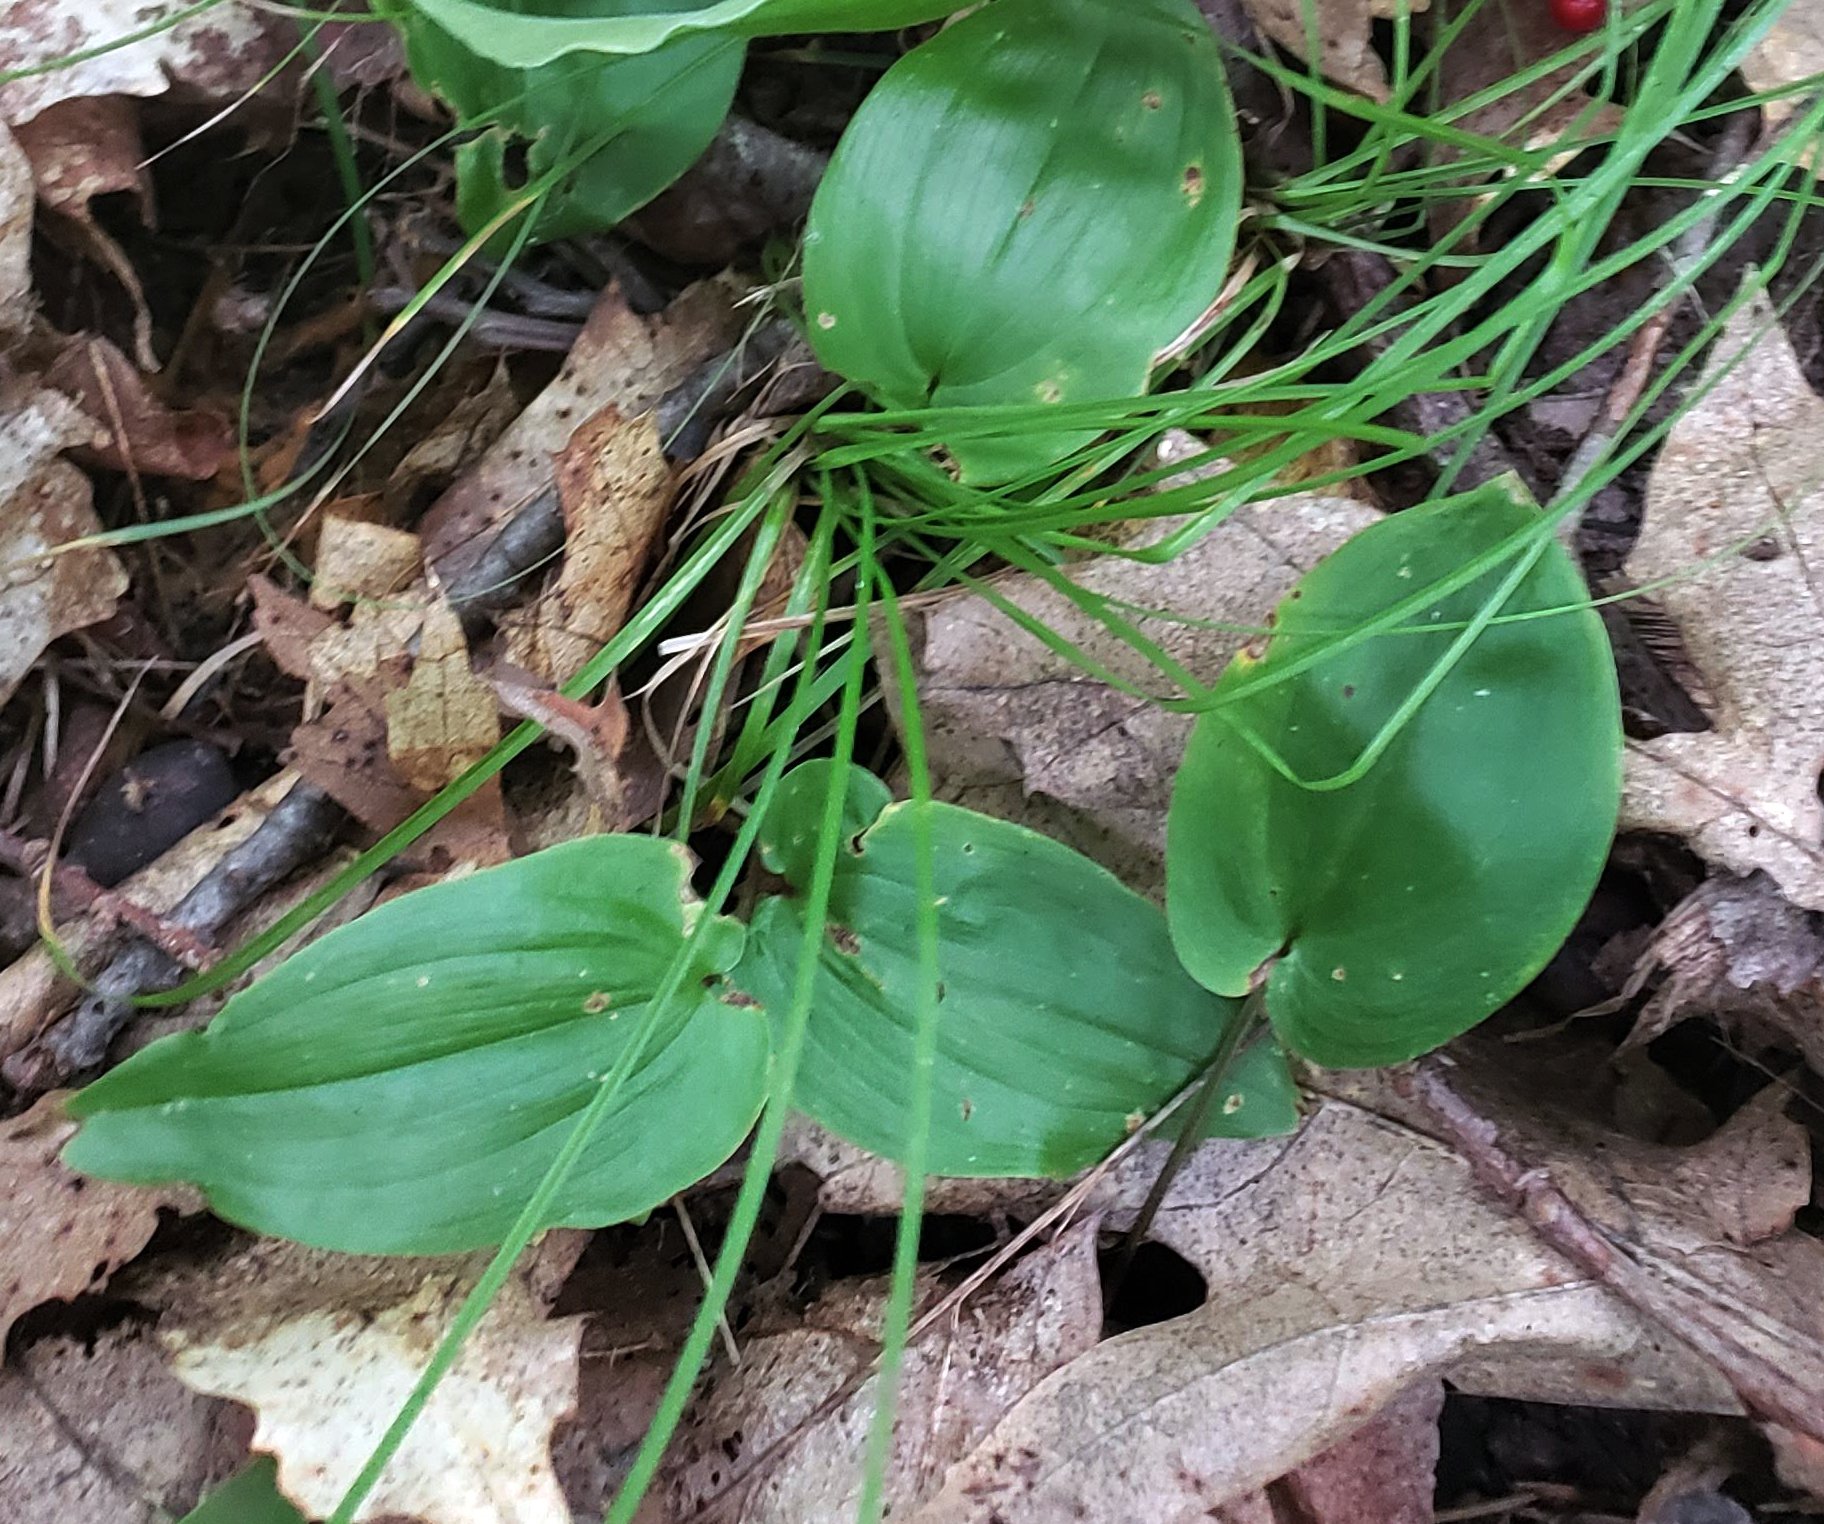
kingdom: Plantae
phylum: Tracheophyta
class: Liliopsida
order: Asparagales
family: Asparagaceae
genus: Maianthemum
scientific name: Maianthemum canadense
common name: False lily-of-the-valley
